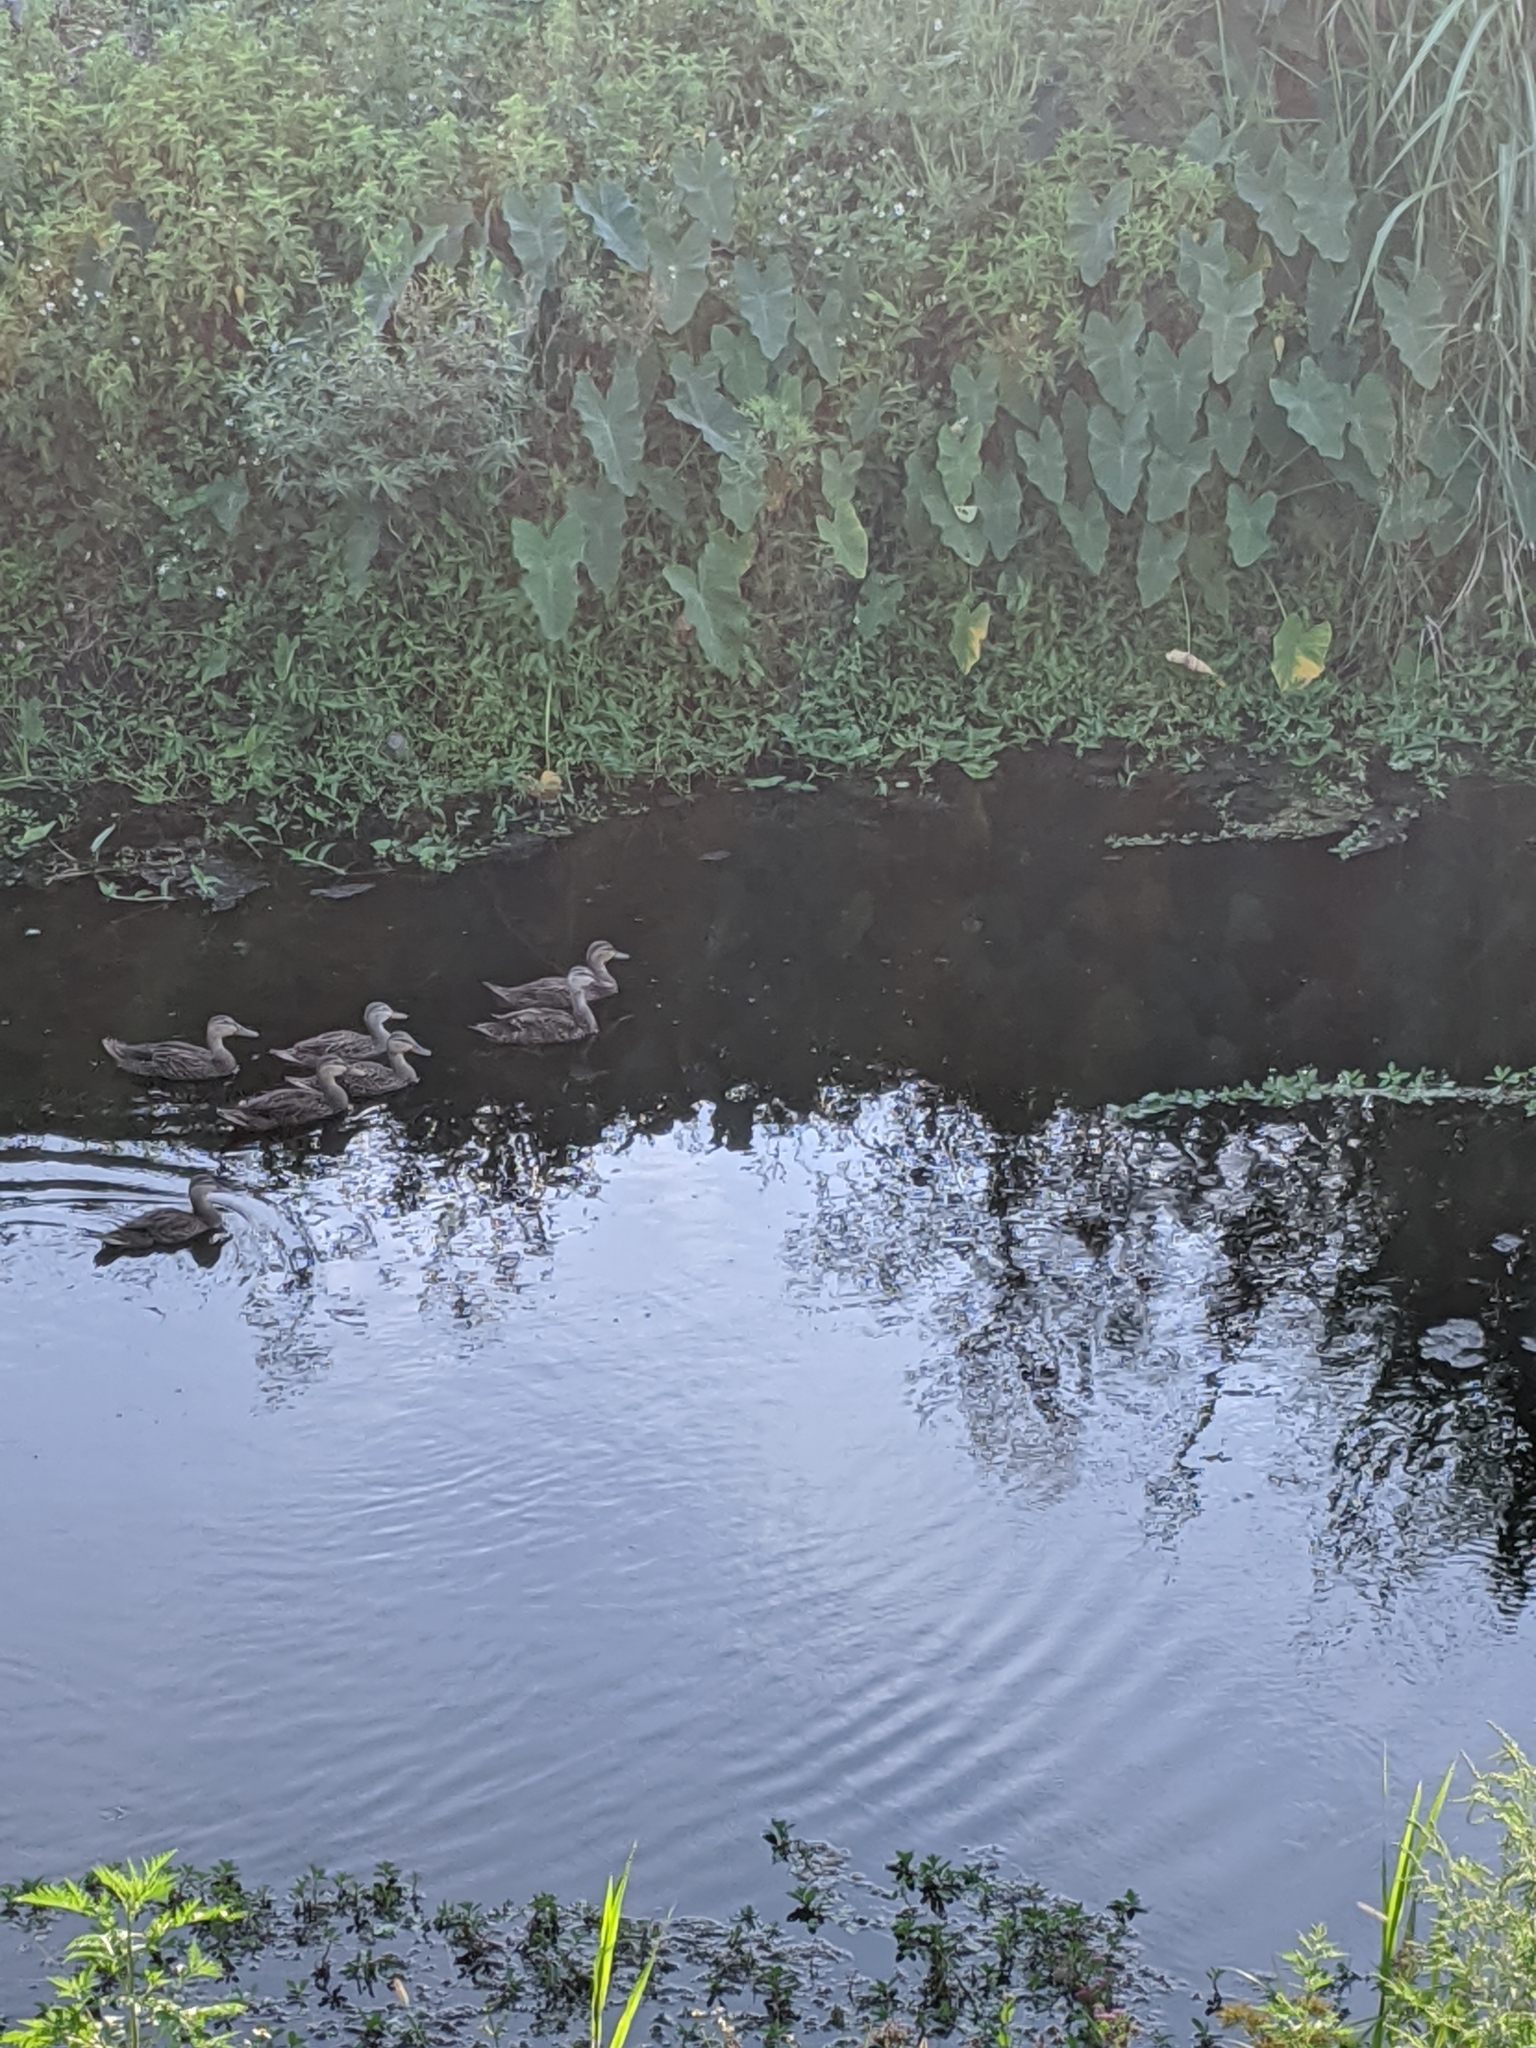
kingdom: Animalia
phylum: Chordata
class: Aves
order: Anseriformes
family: Anatidae
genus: Anas
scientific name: Anas
